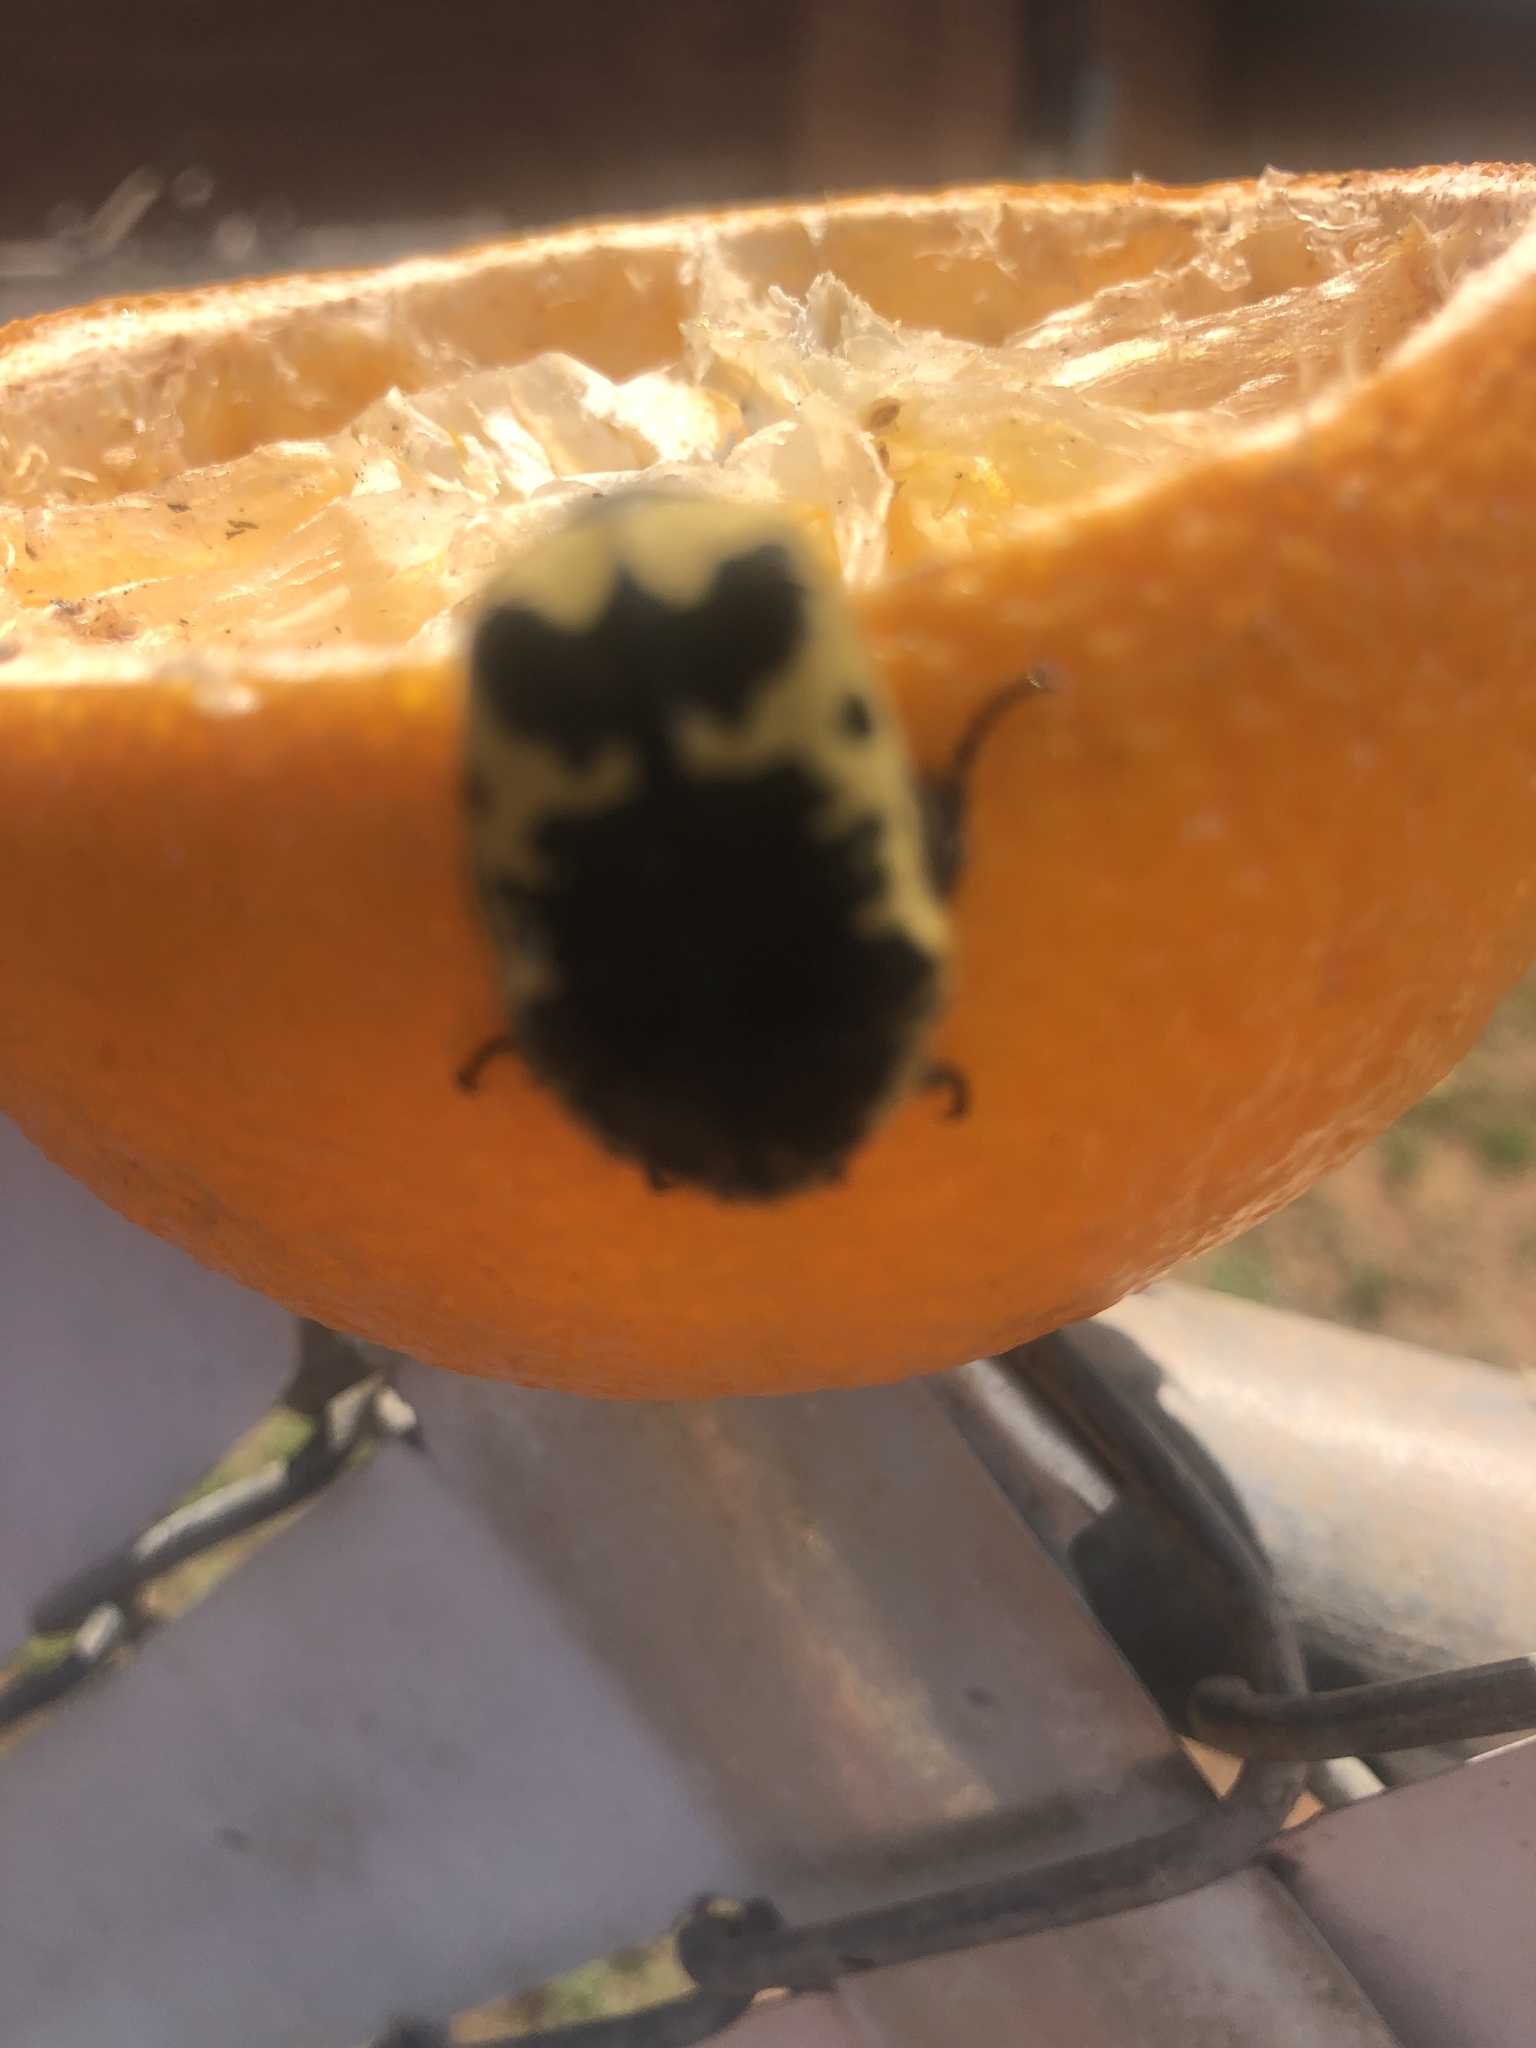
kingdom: Animalia
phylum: Arthropoda
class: Insecta
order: Coleoptera
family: Scarabaeidae
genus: Gymnetis
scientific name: Gymnetis thula
